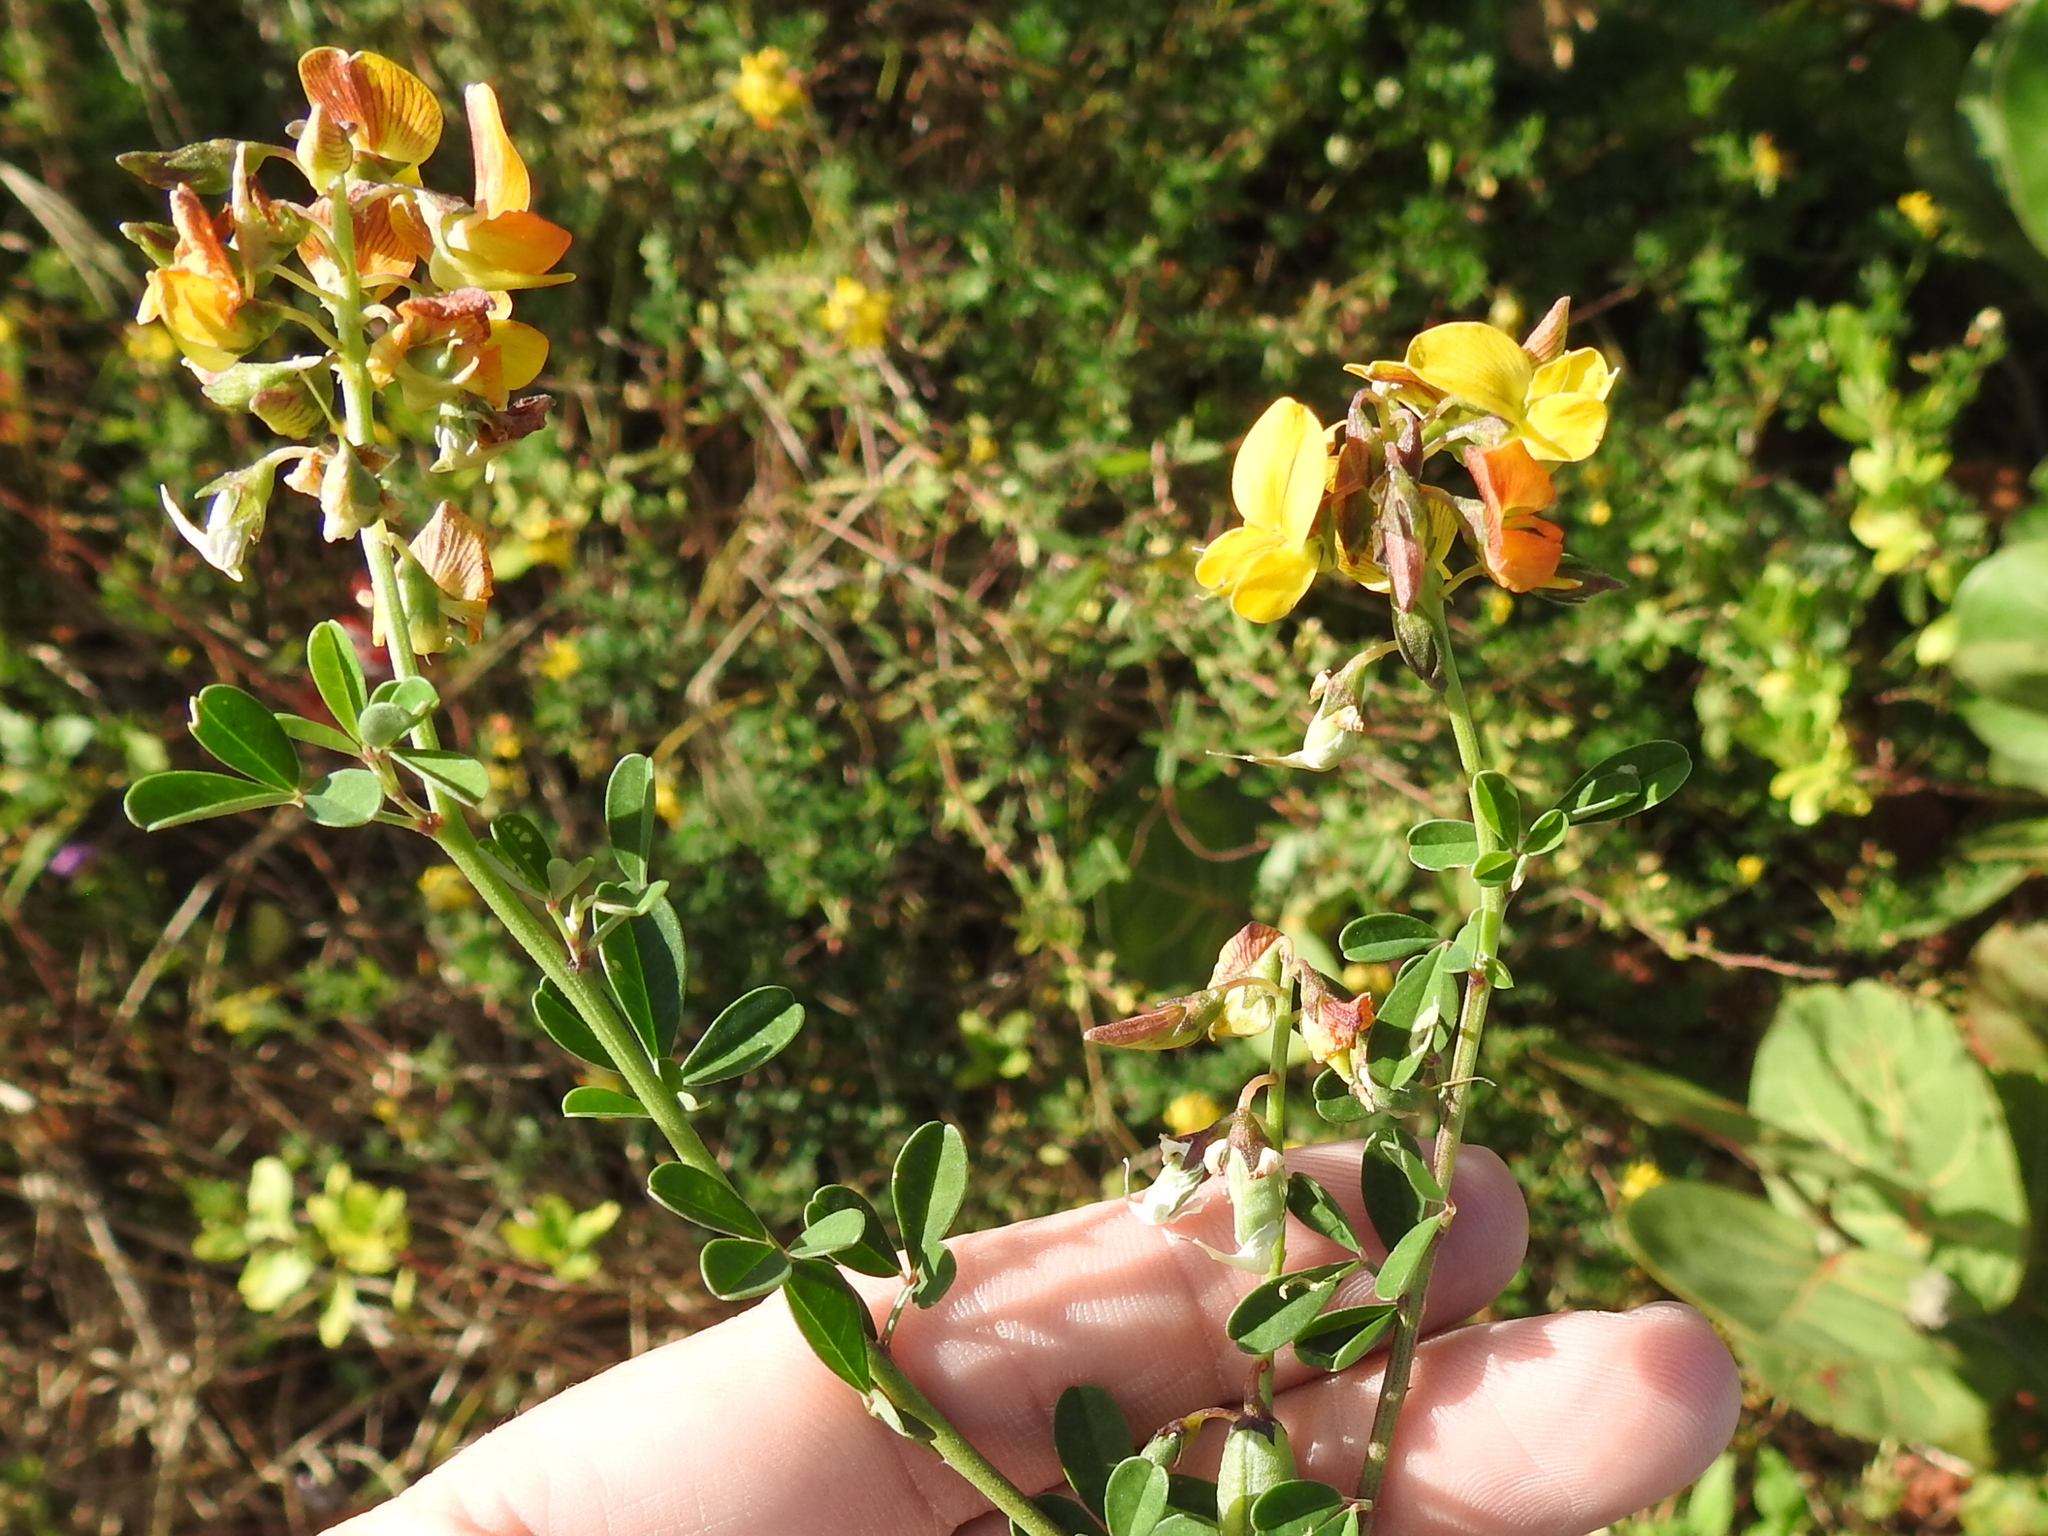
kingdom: Plantae
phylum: Tracheophyta
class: Magnoliopsida
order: Fabales
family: Fabaceae
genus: Crotalaria
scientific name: Crotalaria pumila
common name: Low rattlebox
